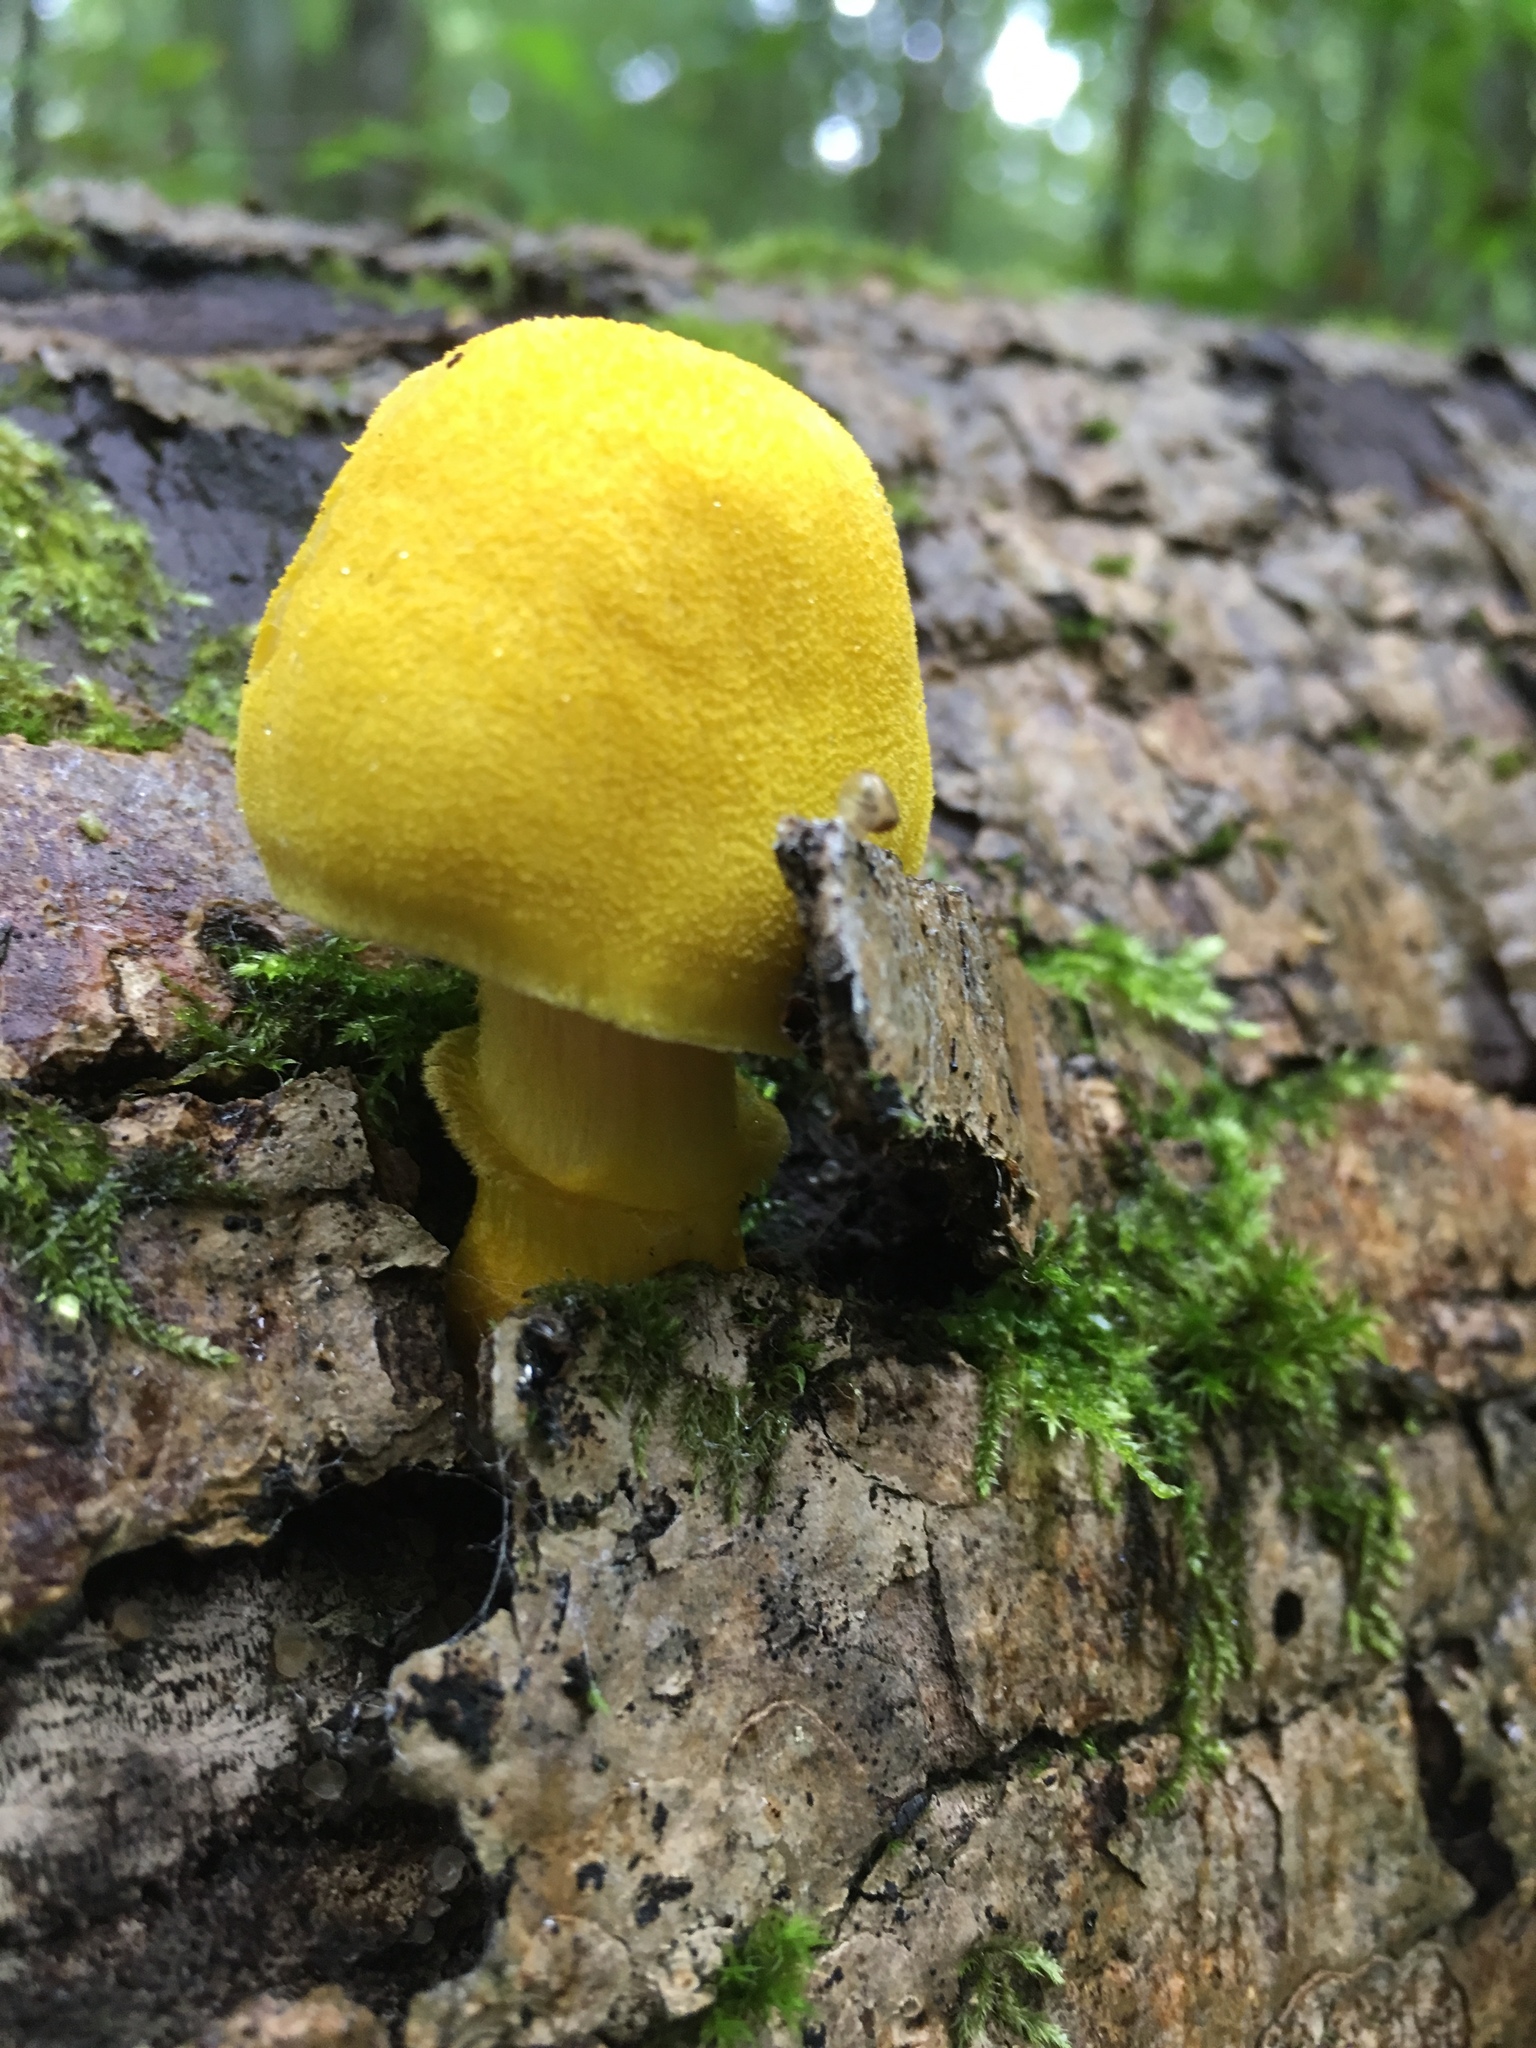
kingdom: Fungi
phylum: Basidiomycota
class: Agaricomycetes
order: Agaricales
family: Pluteaceae
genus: Pluteus
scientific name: Pluteus fenzlii
